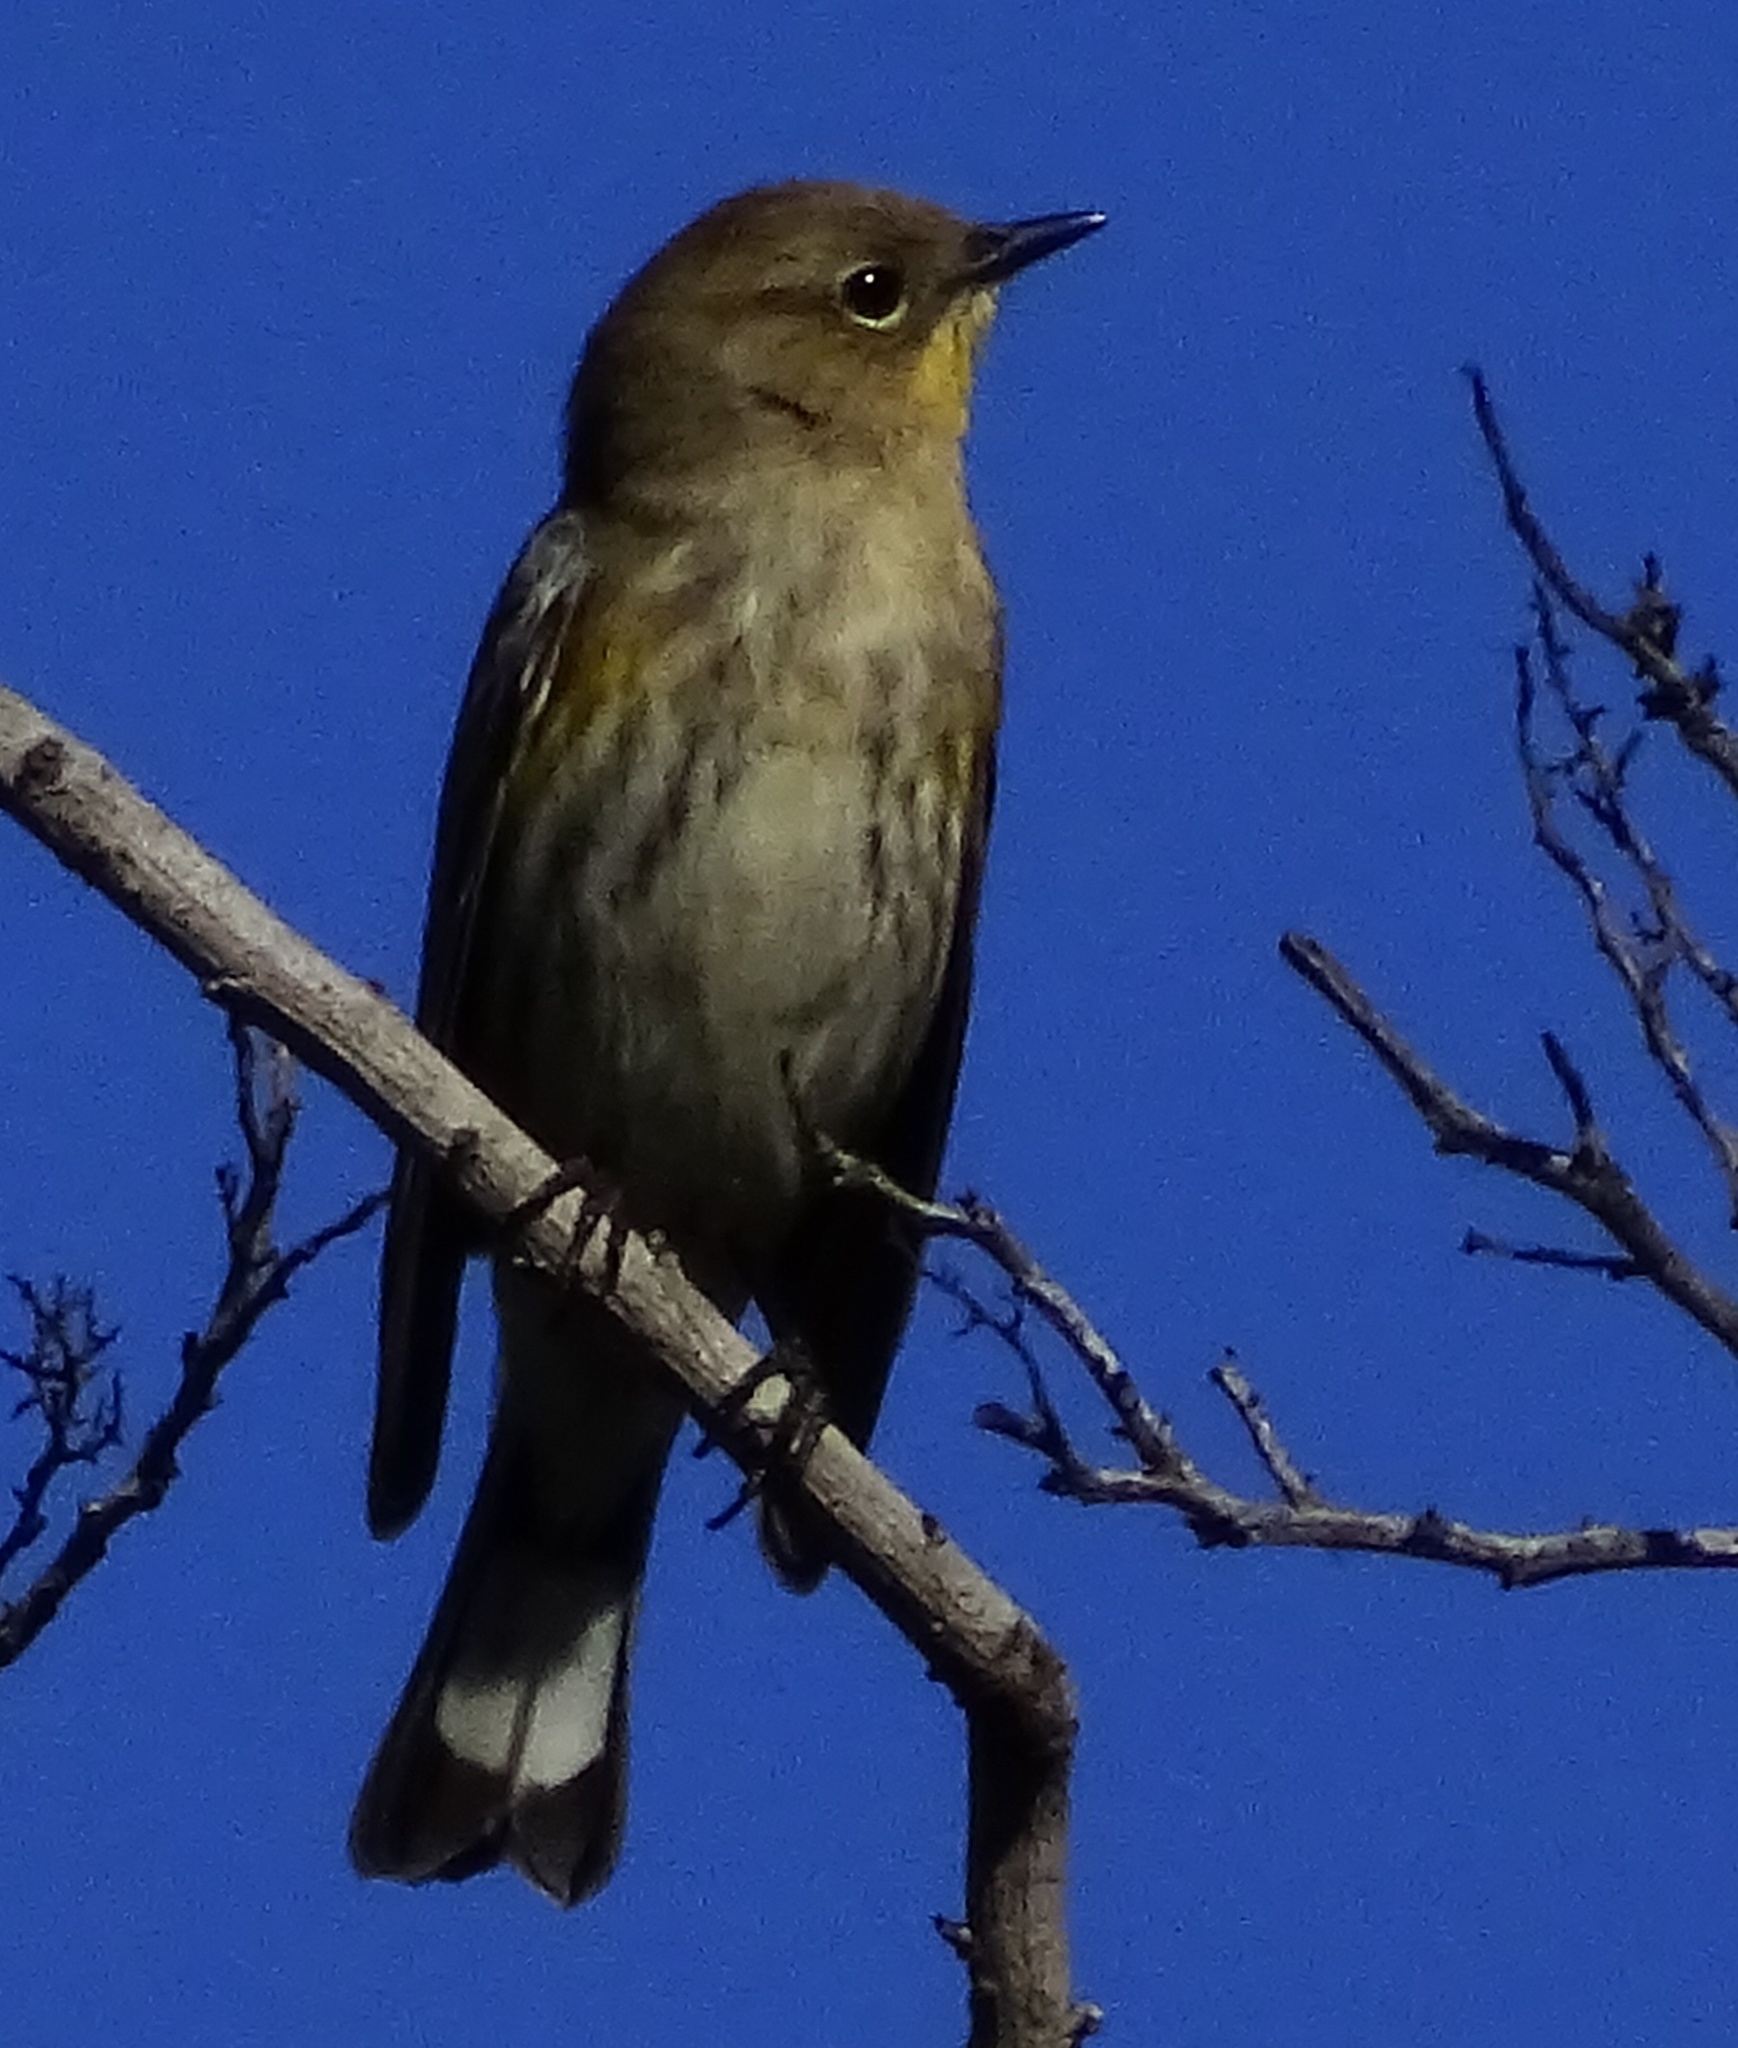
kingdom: Animalia
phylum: Chordata
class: Aves
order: Passeriformes
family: Parulidae
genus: Setophaga
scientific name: Setophaga coronata
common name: Myrtle warbler
